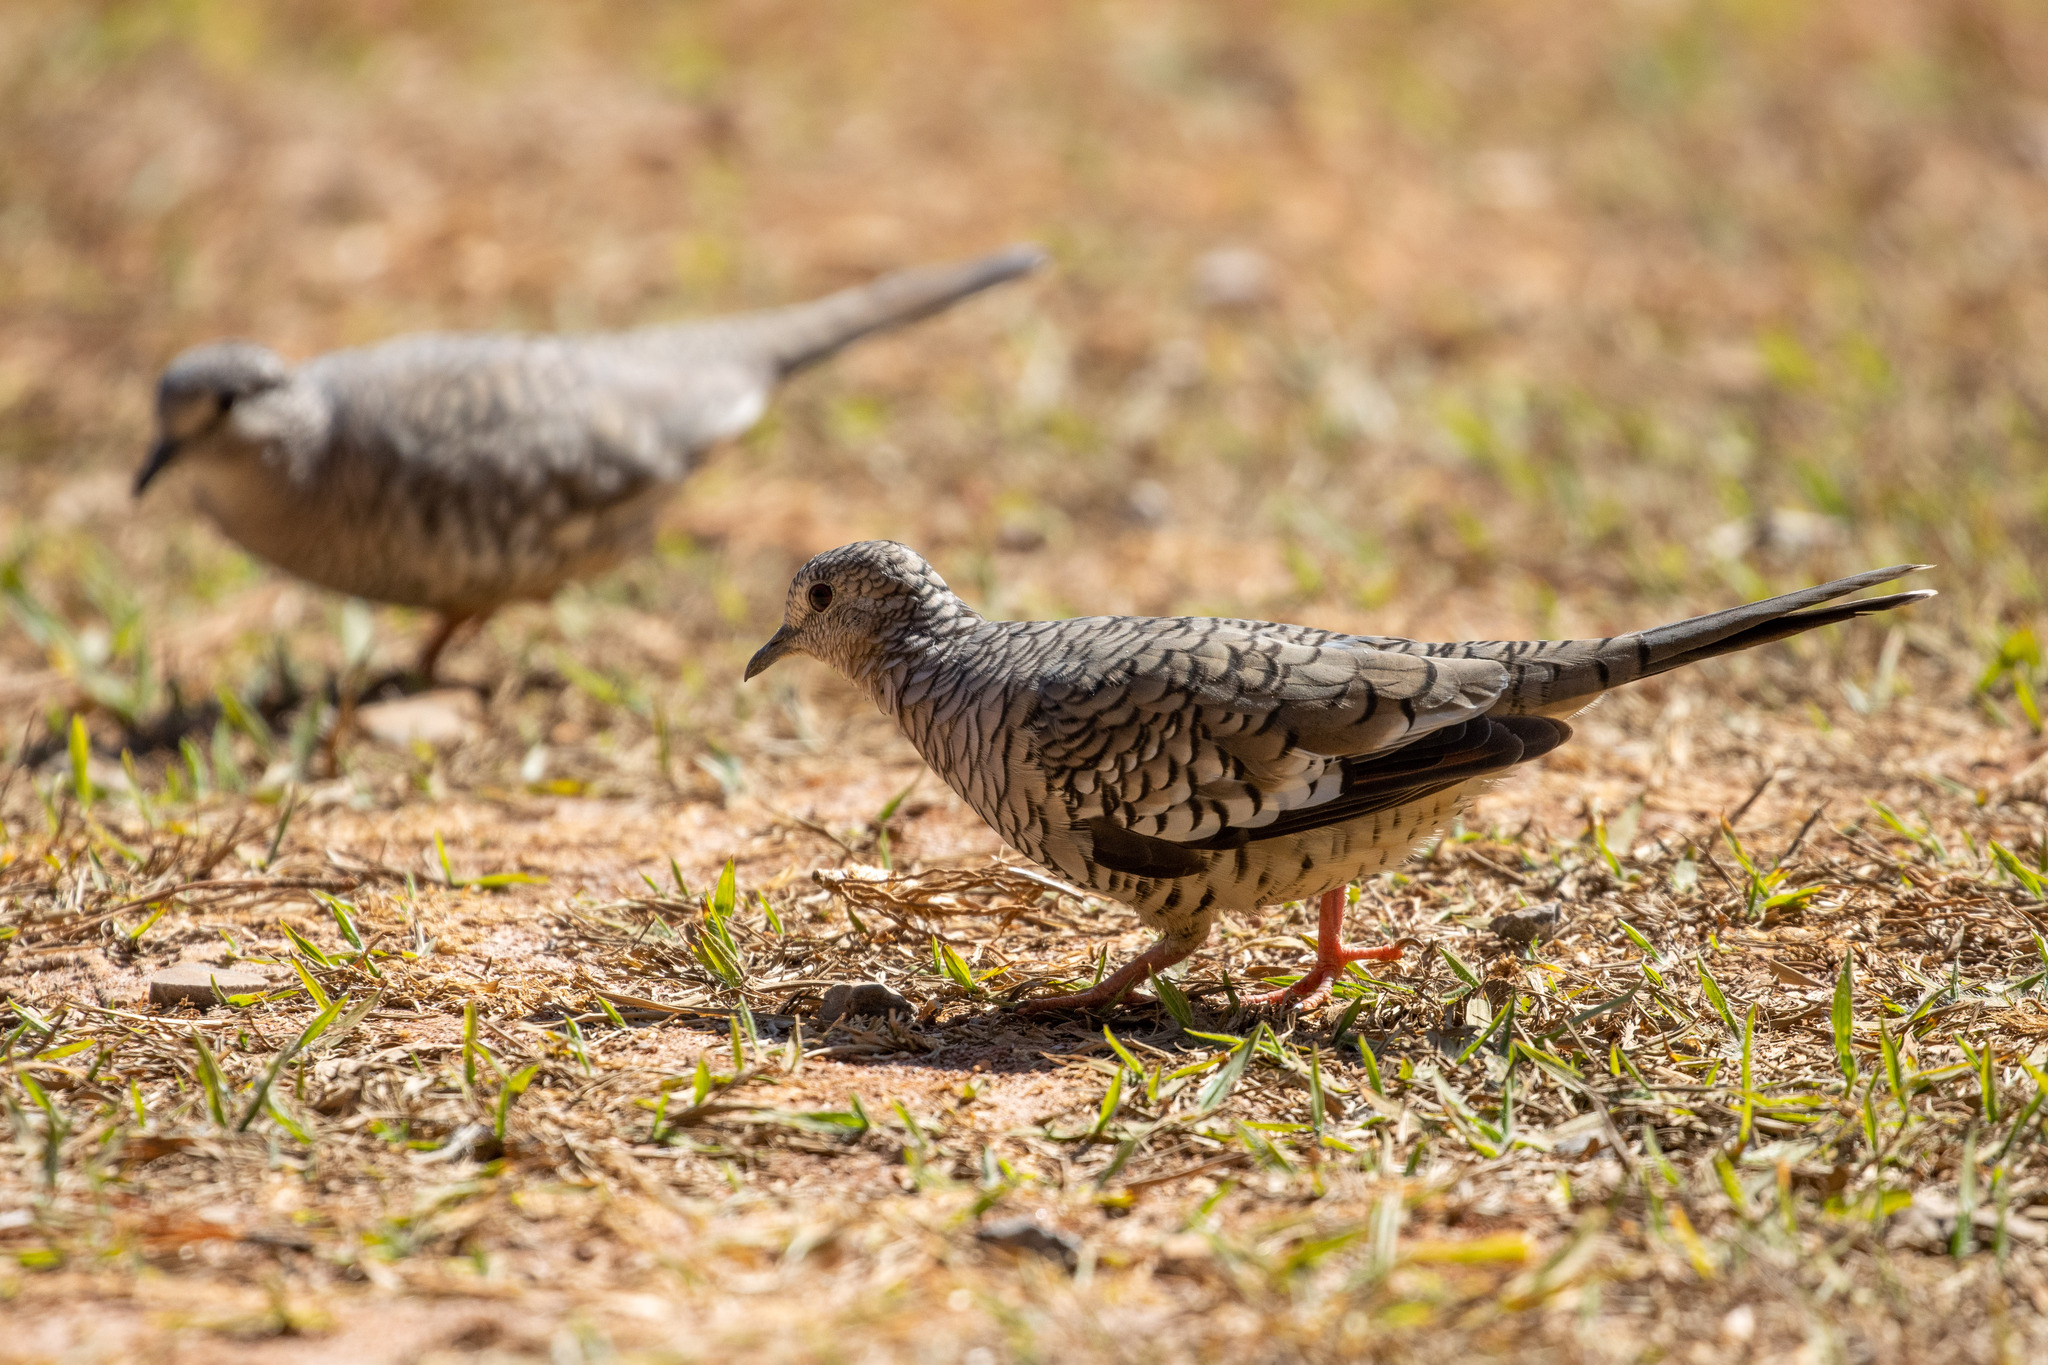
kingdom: Animalia
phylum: Chordata
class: Aves
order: Columbiformes
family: Columbidae
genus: Columbina
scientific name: Columbina squammata
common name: Scaled dove
